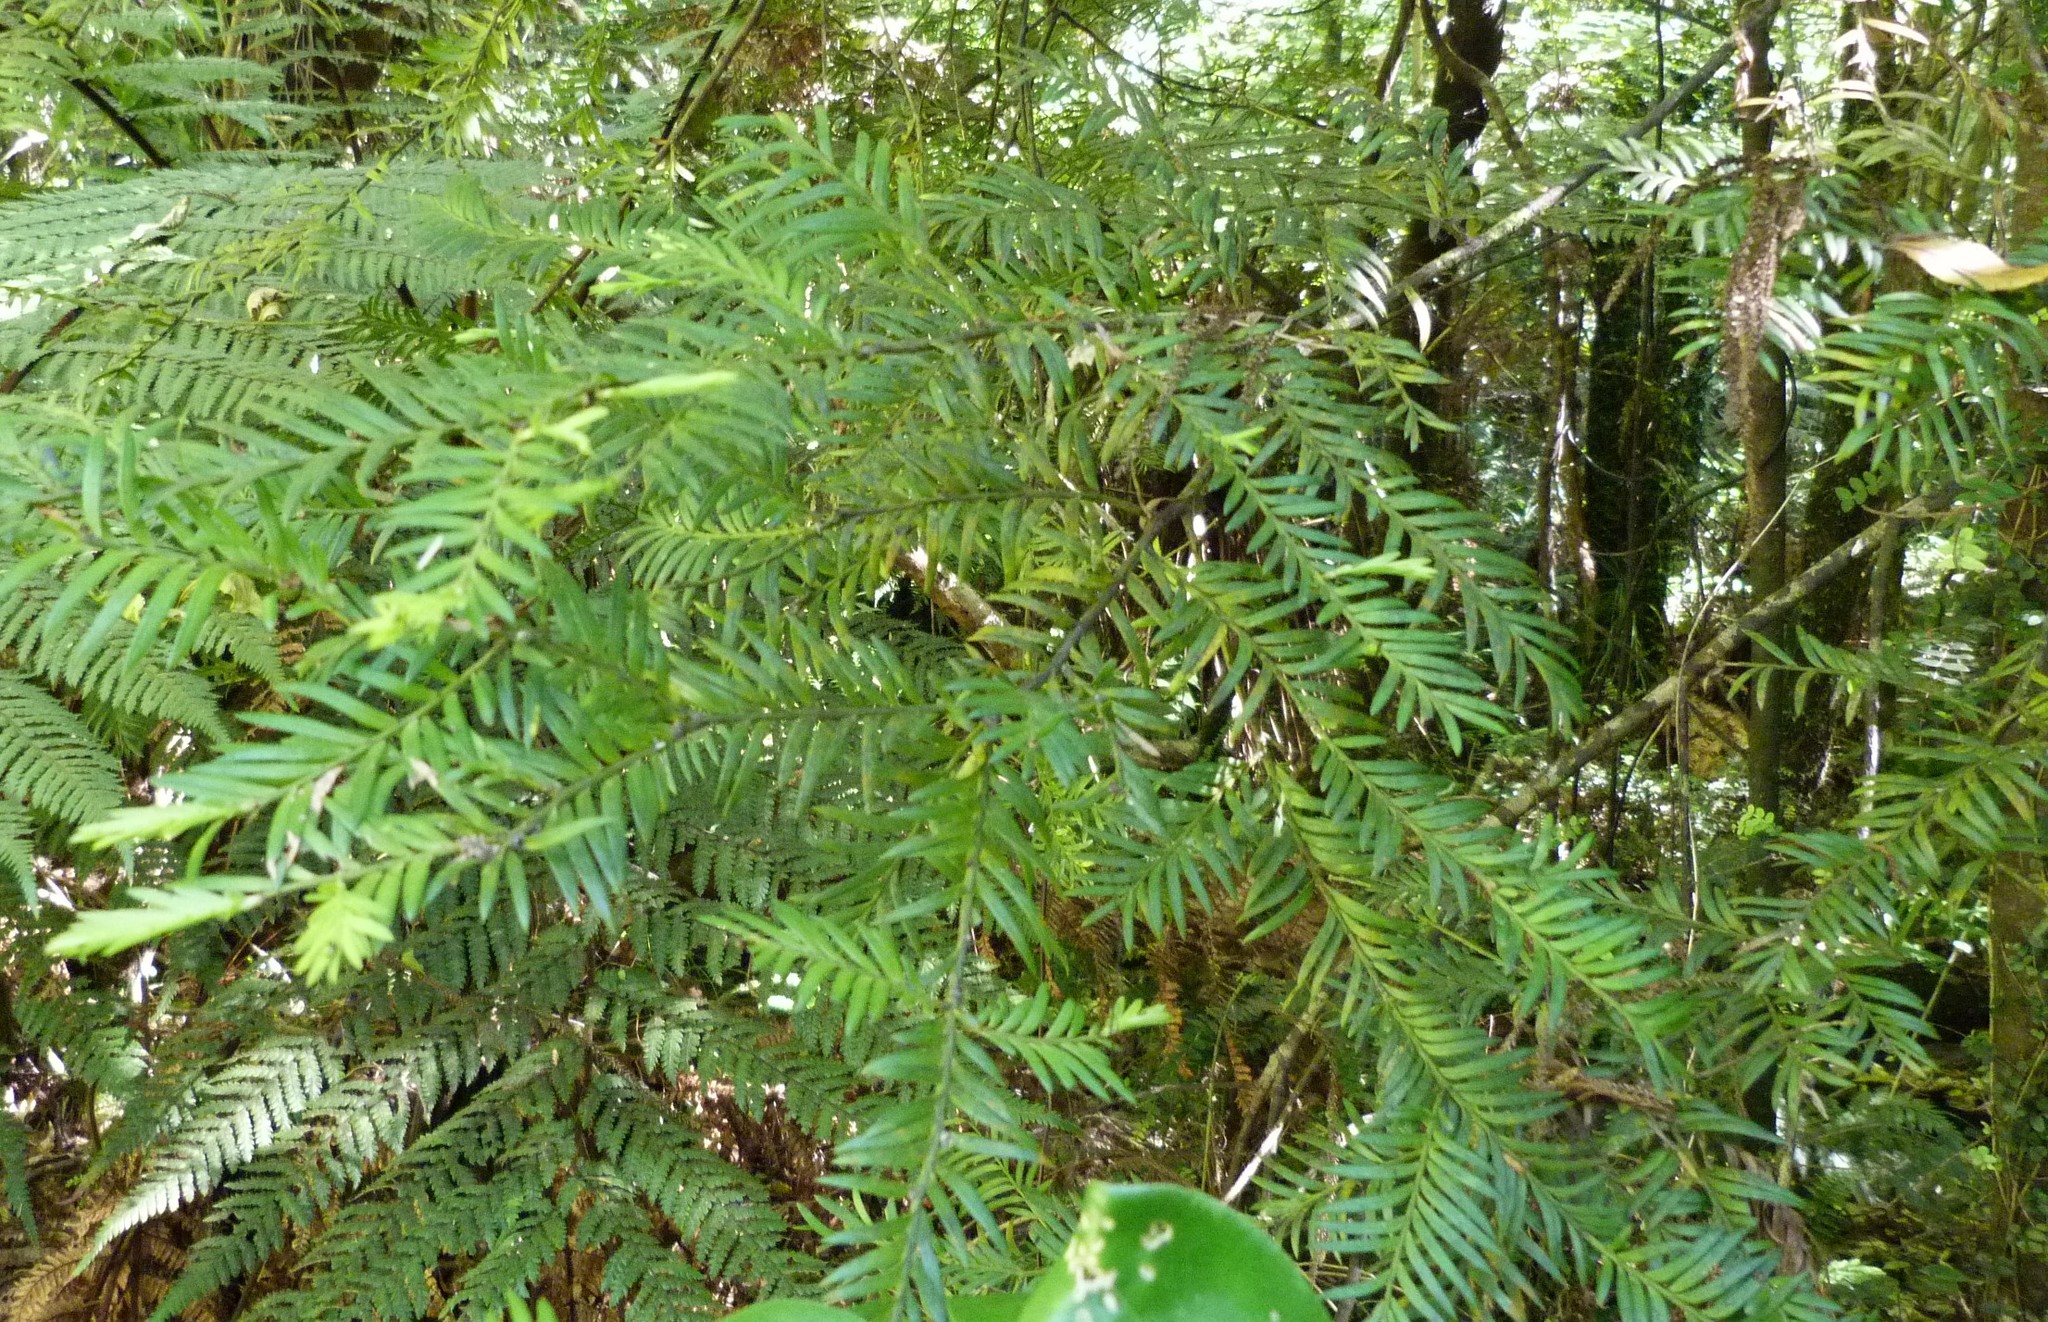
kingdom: Plantae
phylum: Tracheophyta
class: Pinopsida
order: Pinales
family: Podocarpaceae
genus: Prumnopitys
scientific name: Prumnopitys ferruginea
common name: Brown pine
